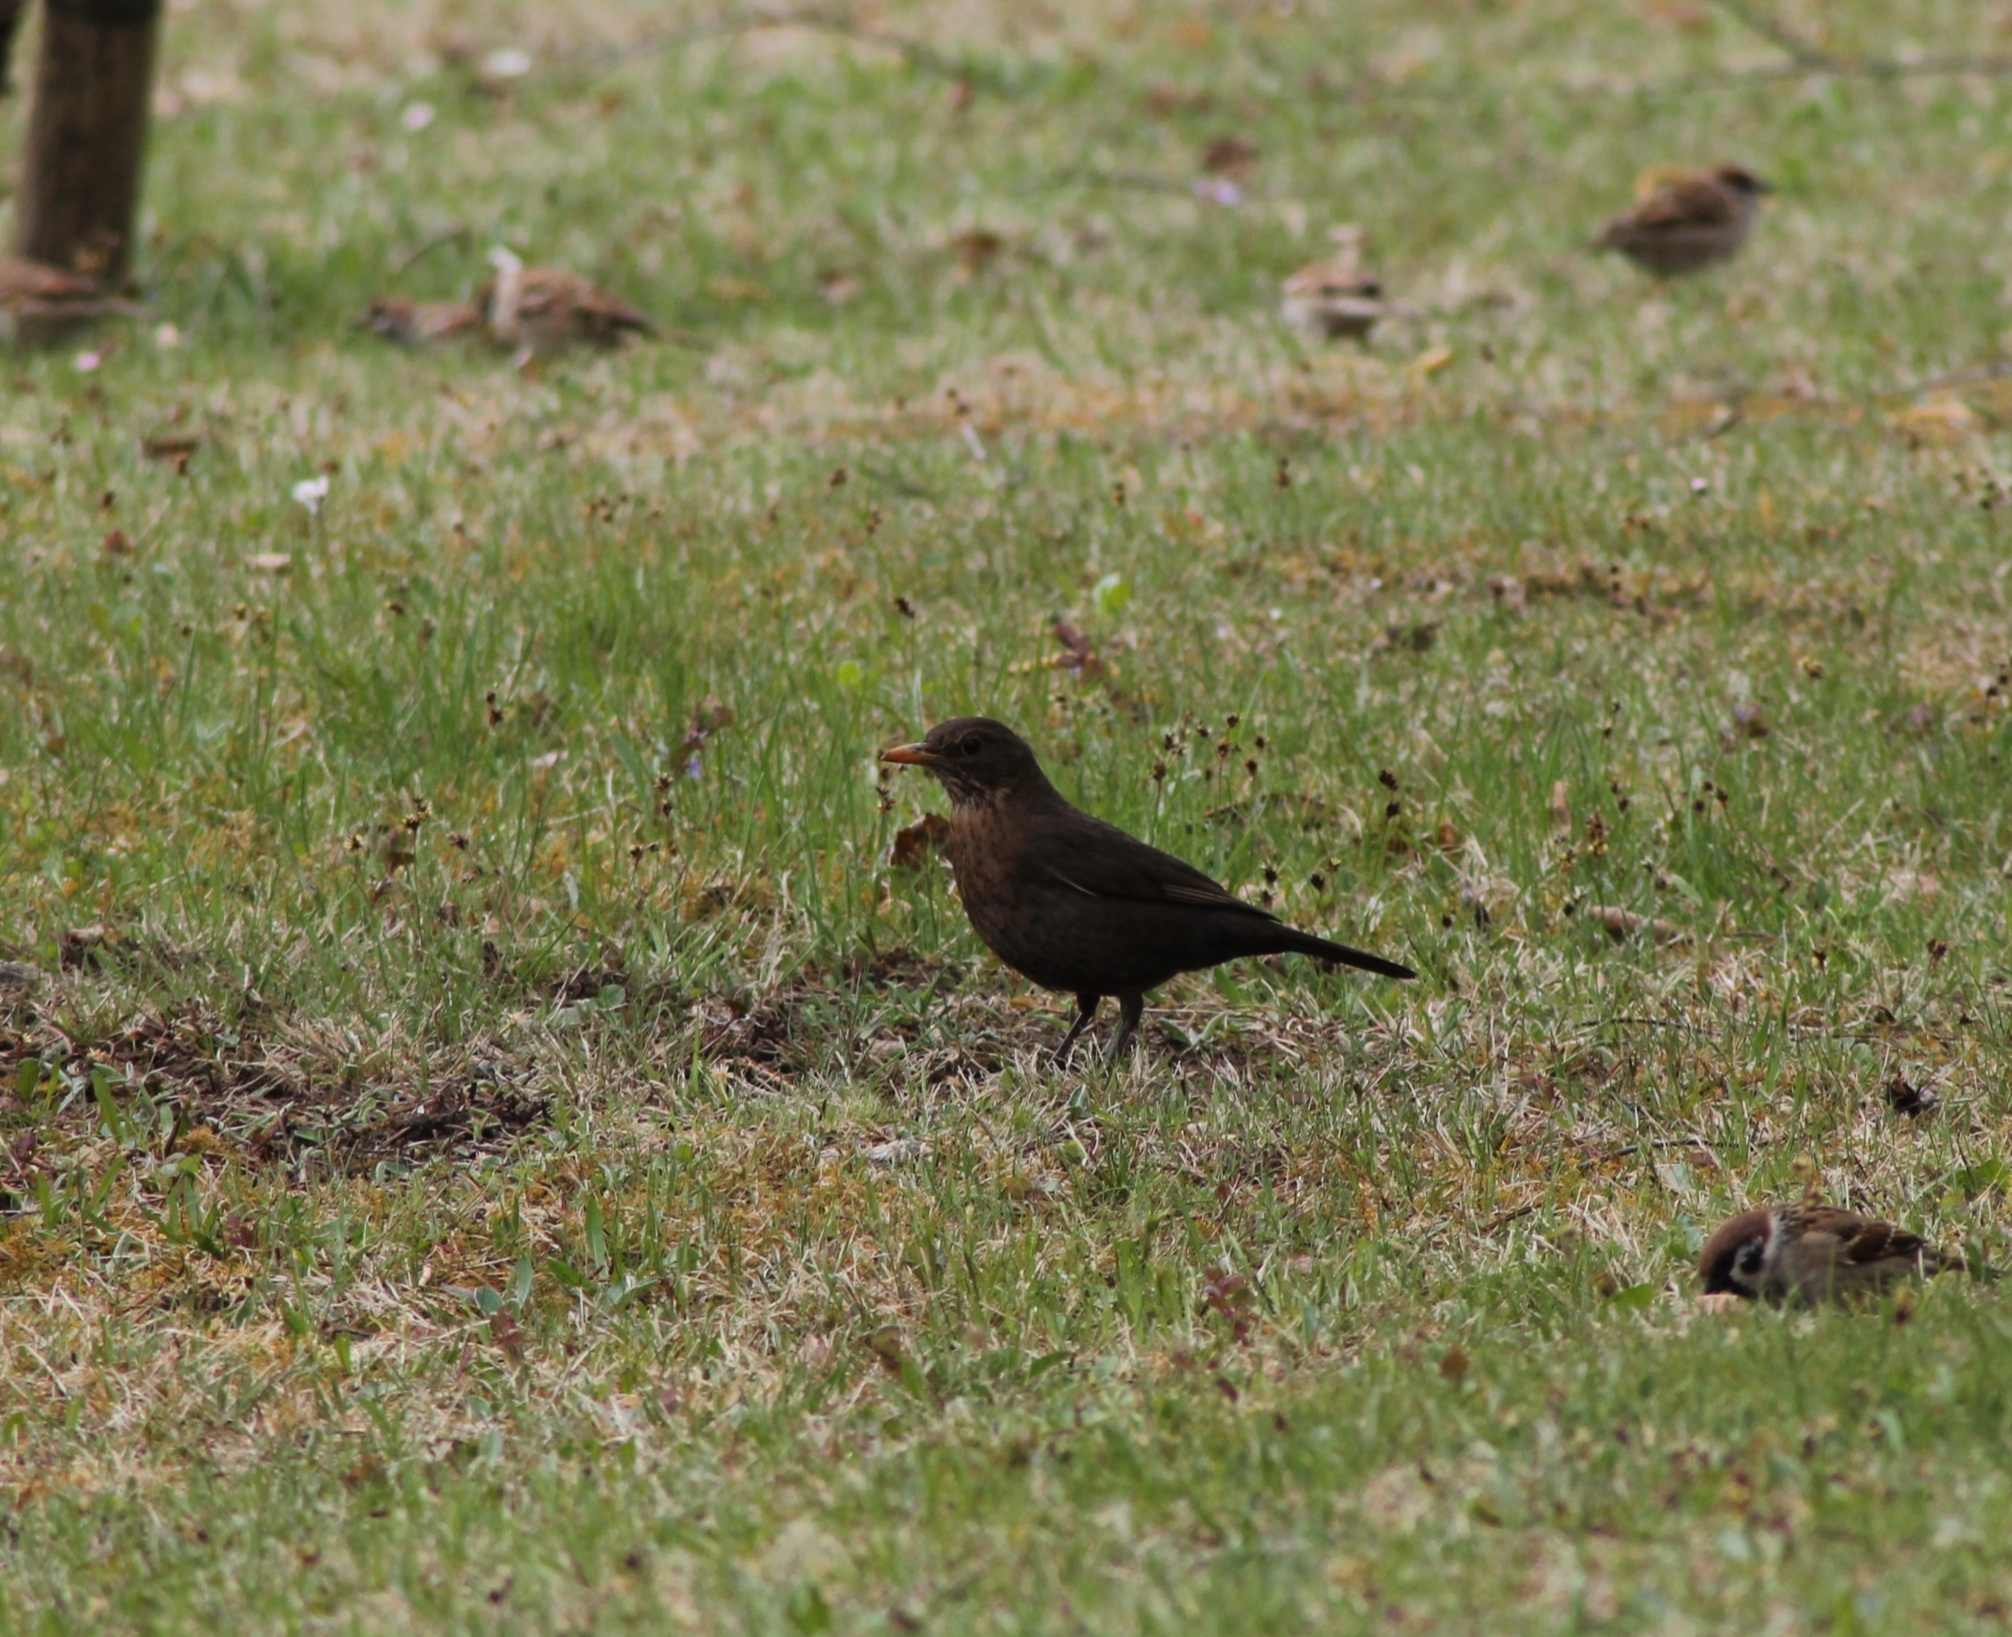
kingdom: Animalia
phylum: Chordata
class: Aves
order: Passeriformes
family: Turdidae
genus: Turdus
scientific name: Turdus merula
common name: Common blackbird
